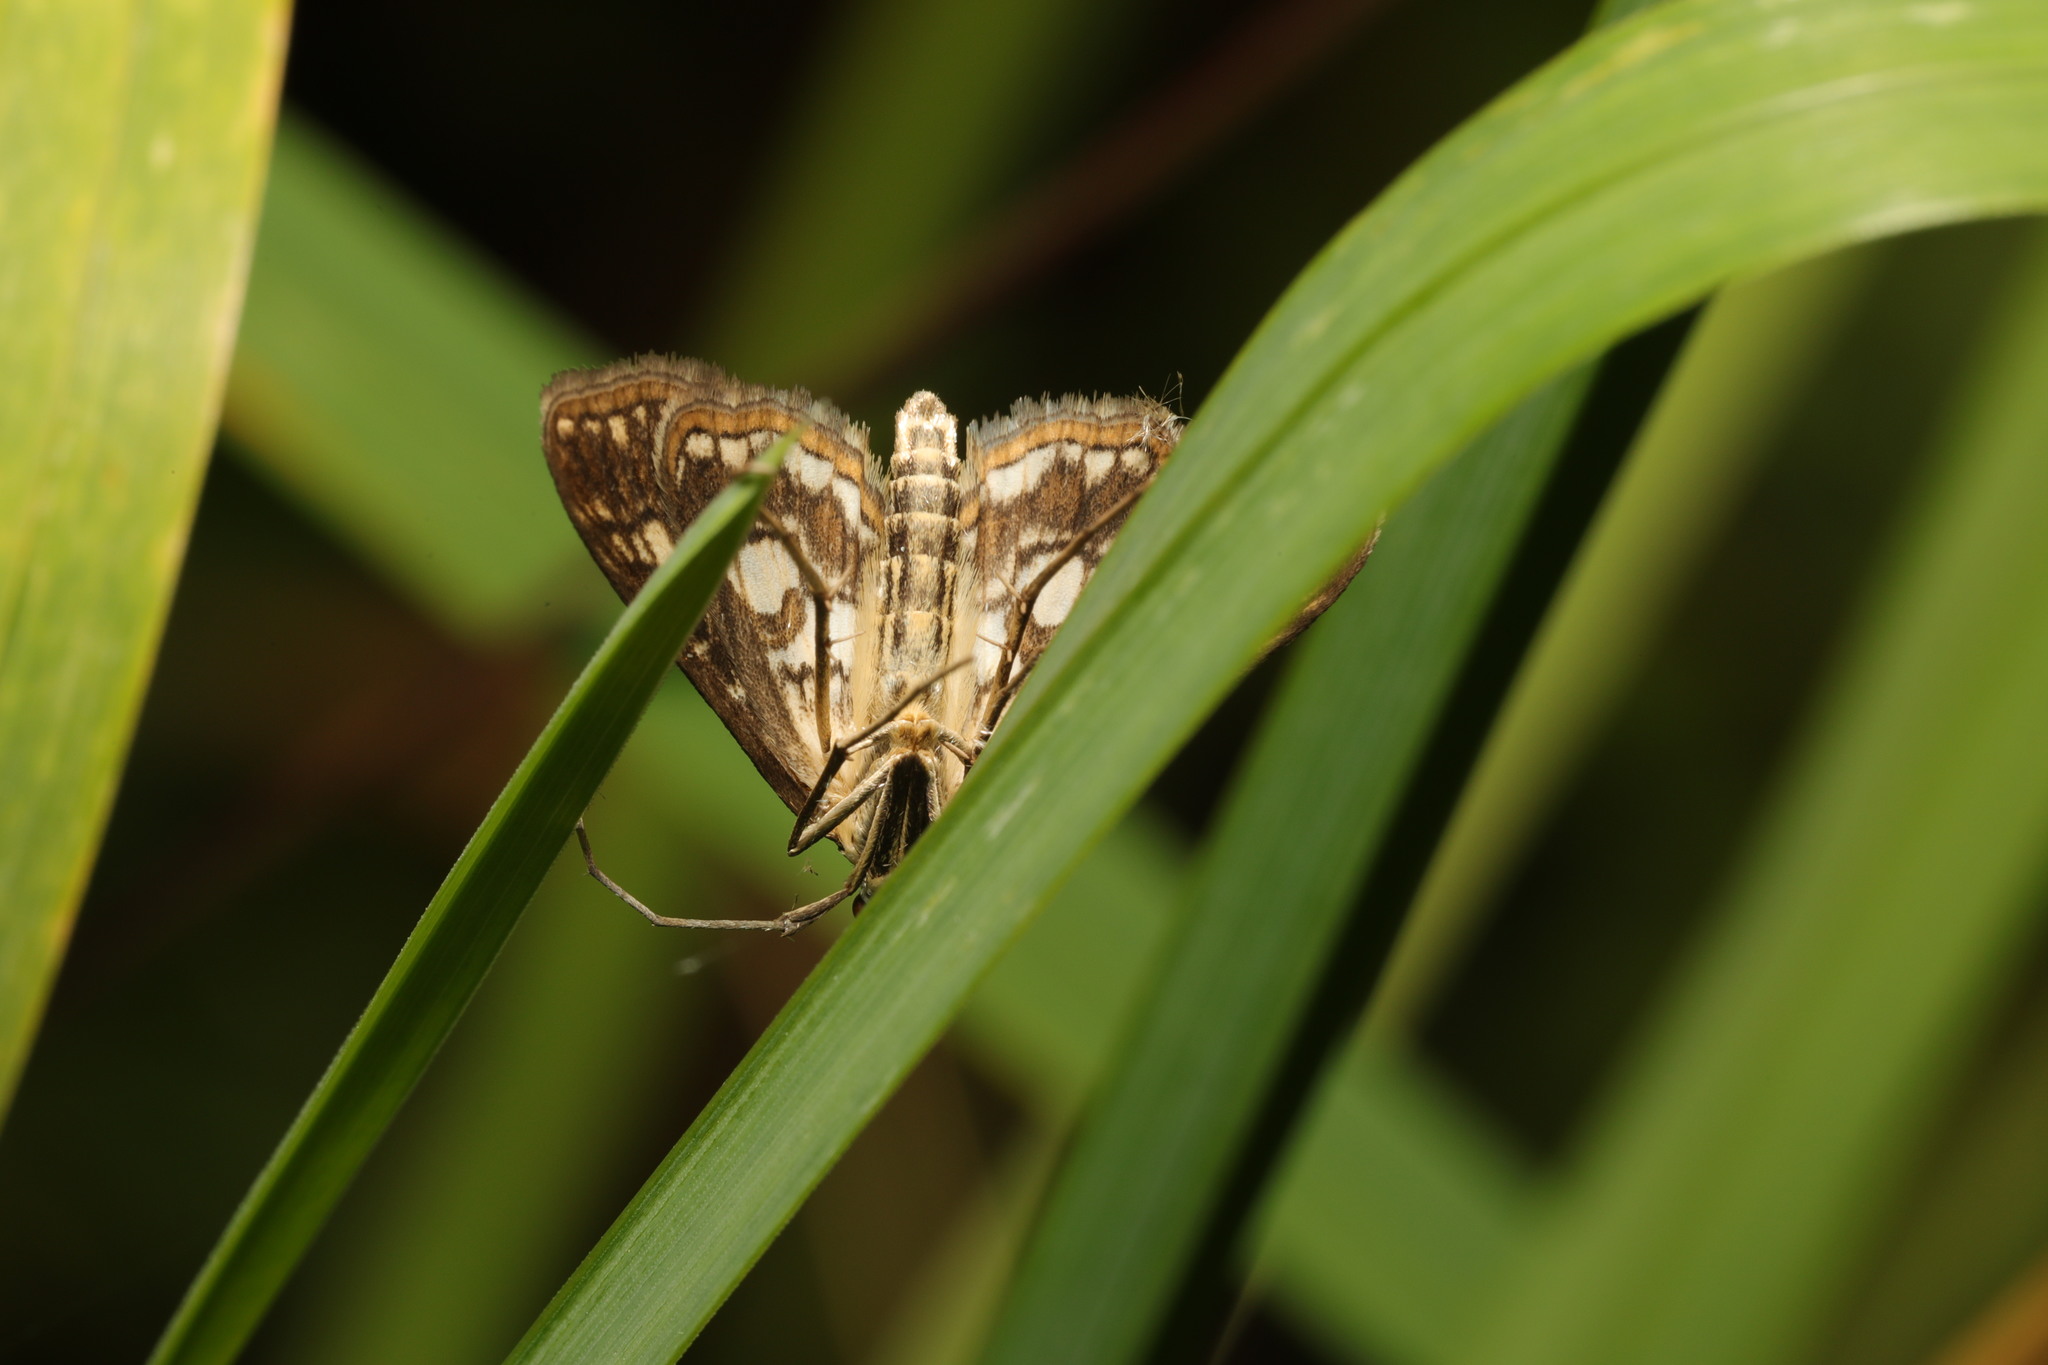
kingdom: Animalia
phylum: Arthropoda
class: Insecta
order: Lepidoptera
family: Crambidae
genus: Elophila
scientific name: Elophila nymphaeata
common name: Brown china-mark
